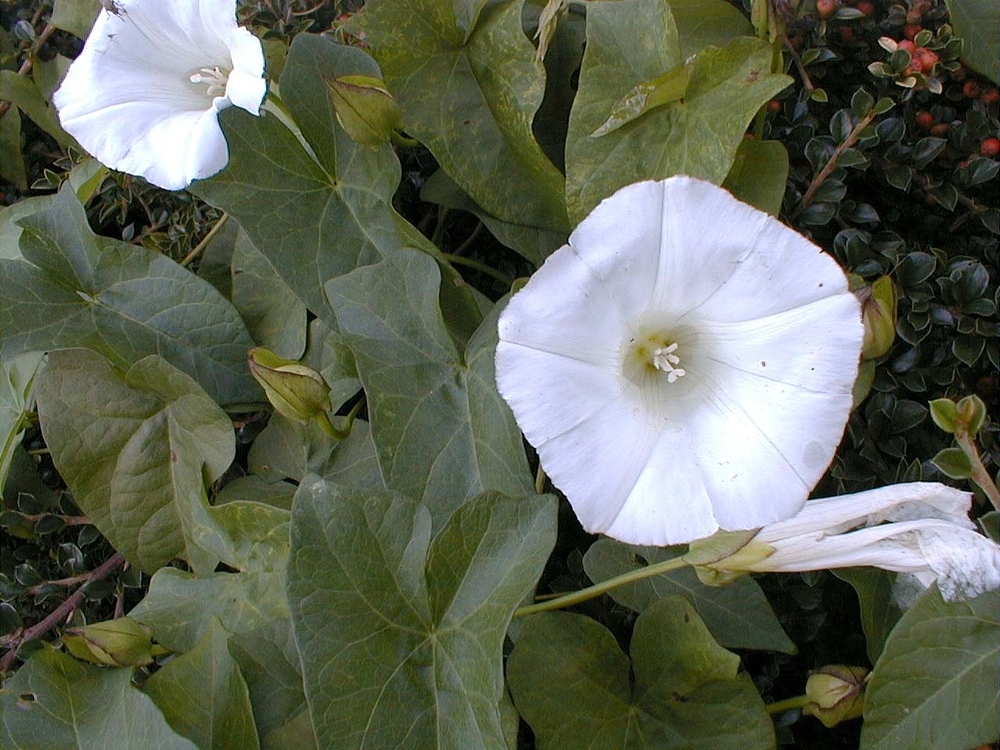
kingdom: Plantae
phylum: Tracheophyta
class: Magnoliopsida
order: Solanales
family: Convolvulaceae
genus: Calystegia
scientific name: Calystegia sepium
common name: Hedge bindweed
